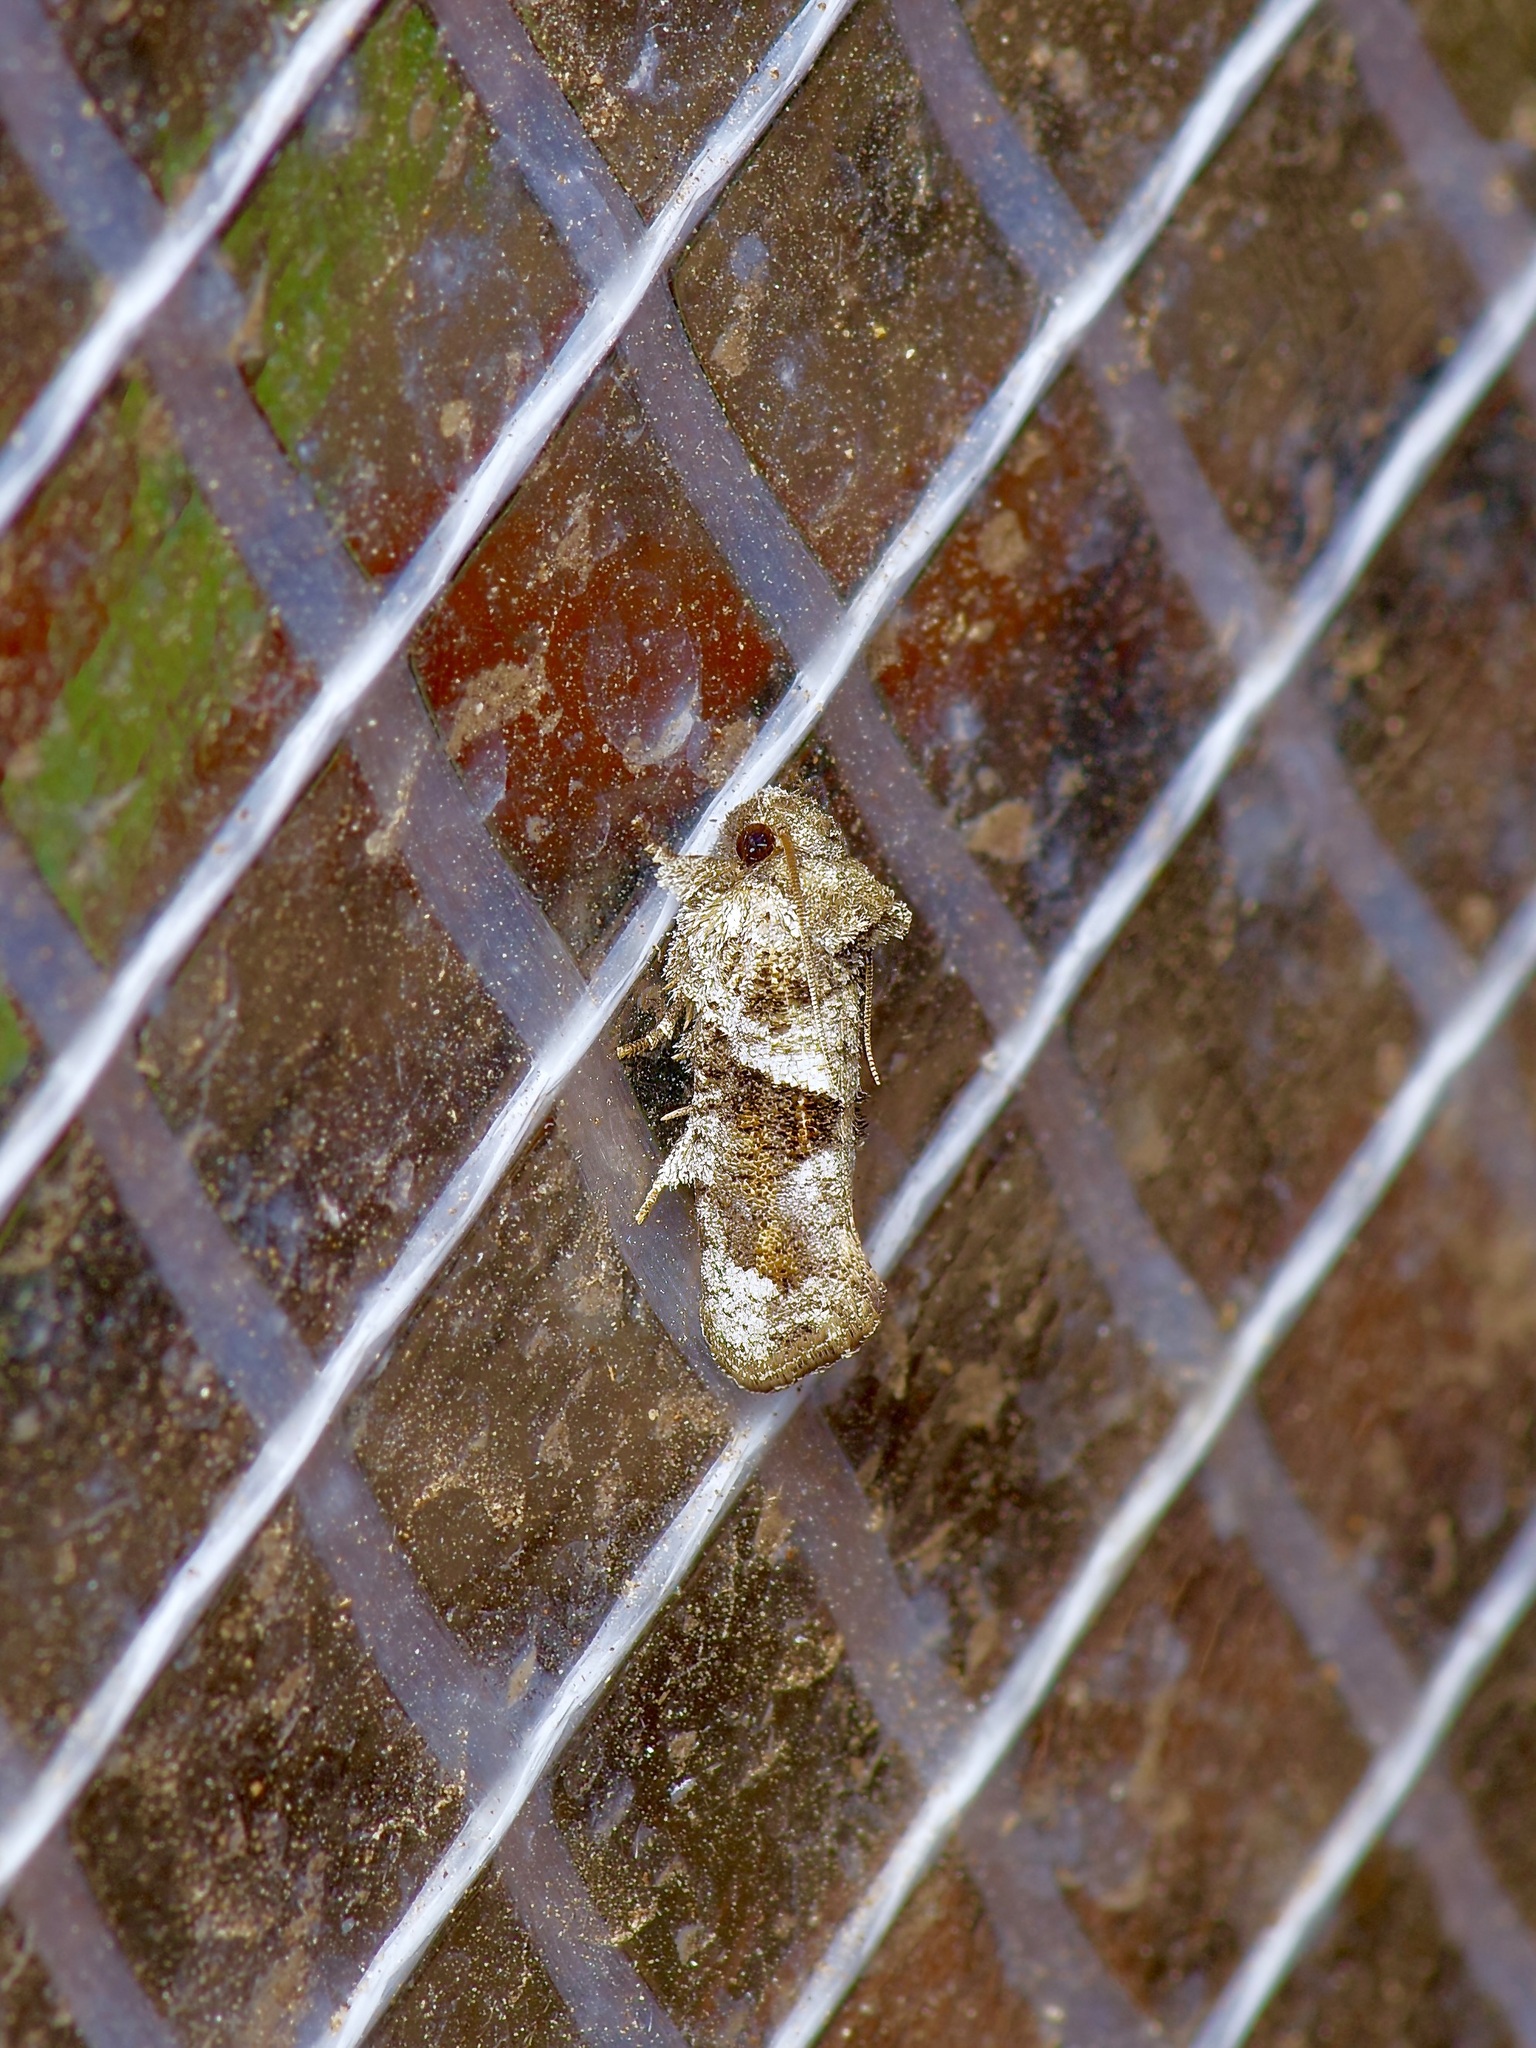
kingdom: Animalia
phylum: Arthropoda
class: Insecta
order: Lepidoptera
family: Tineidae
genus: Acrolophus
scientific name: Acrolophus piger
